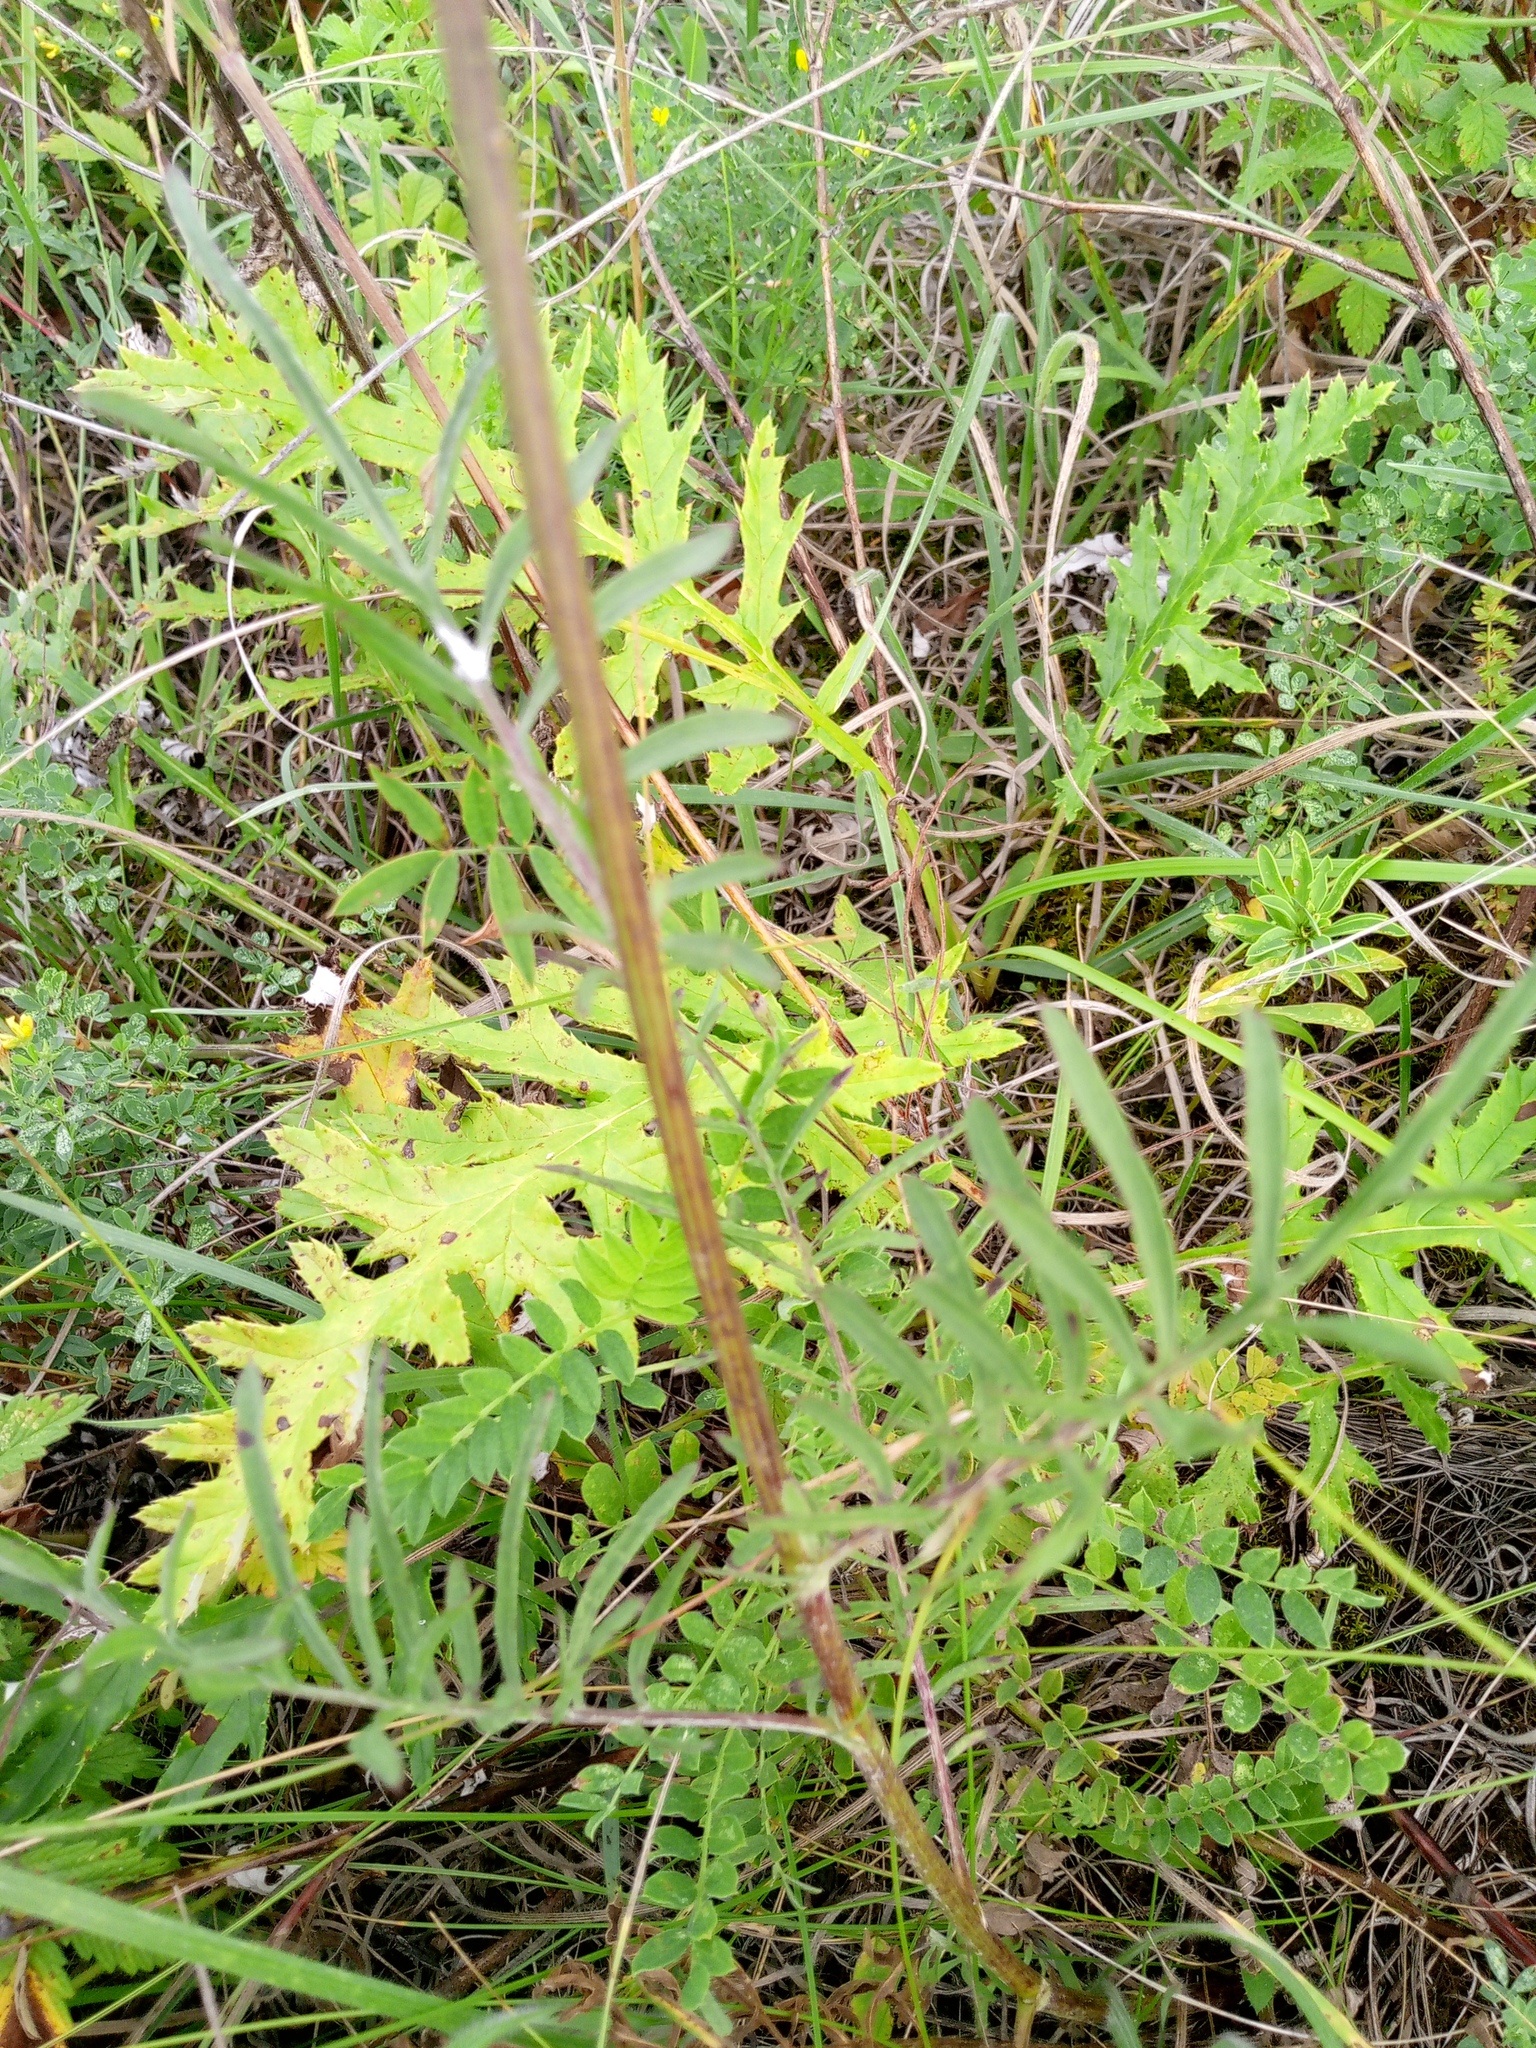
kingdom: Plantae
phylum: Tracheophyta
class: Magnoliopsida
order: Asterales
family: Asteraceae
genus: Centaurea
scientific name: Centaurea scabiosa
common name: Greater knapweed
